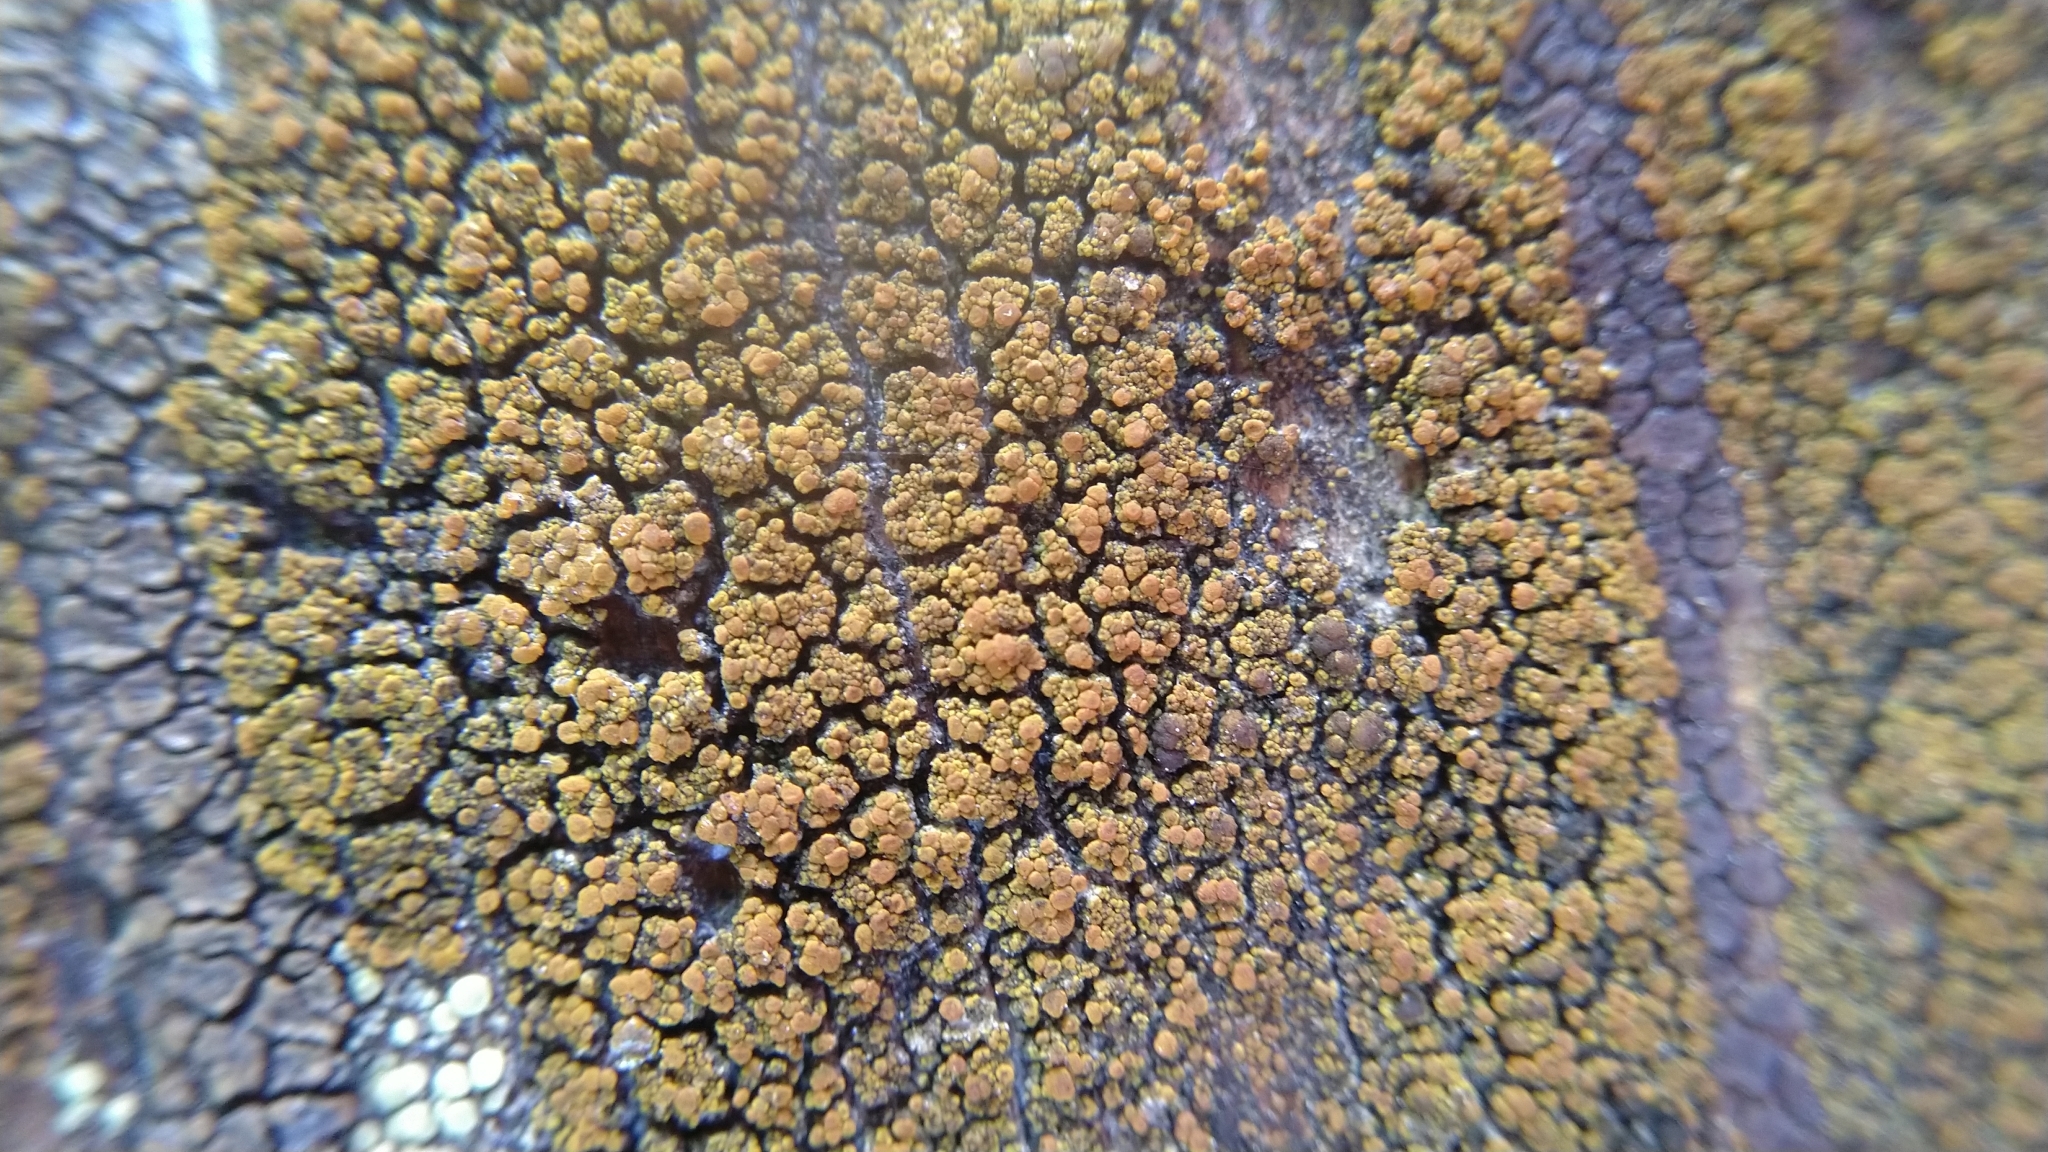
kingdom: Fungi
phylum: Ascomycota
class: Candelariomycetes
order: Candelariales
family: Candelariaceae
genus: Candelariella
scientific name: Candelariella vitellina
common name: Common goldspeck
